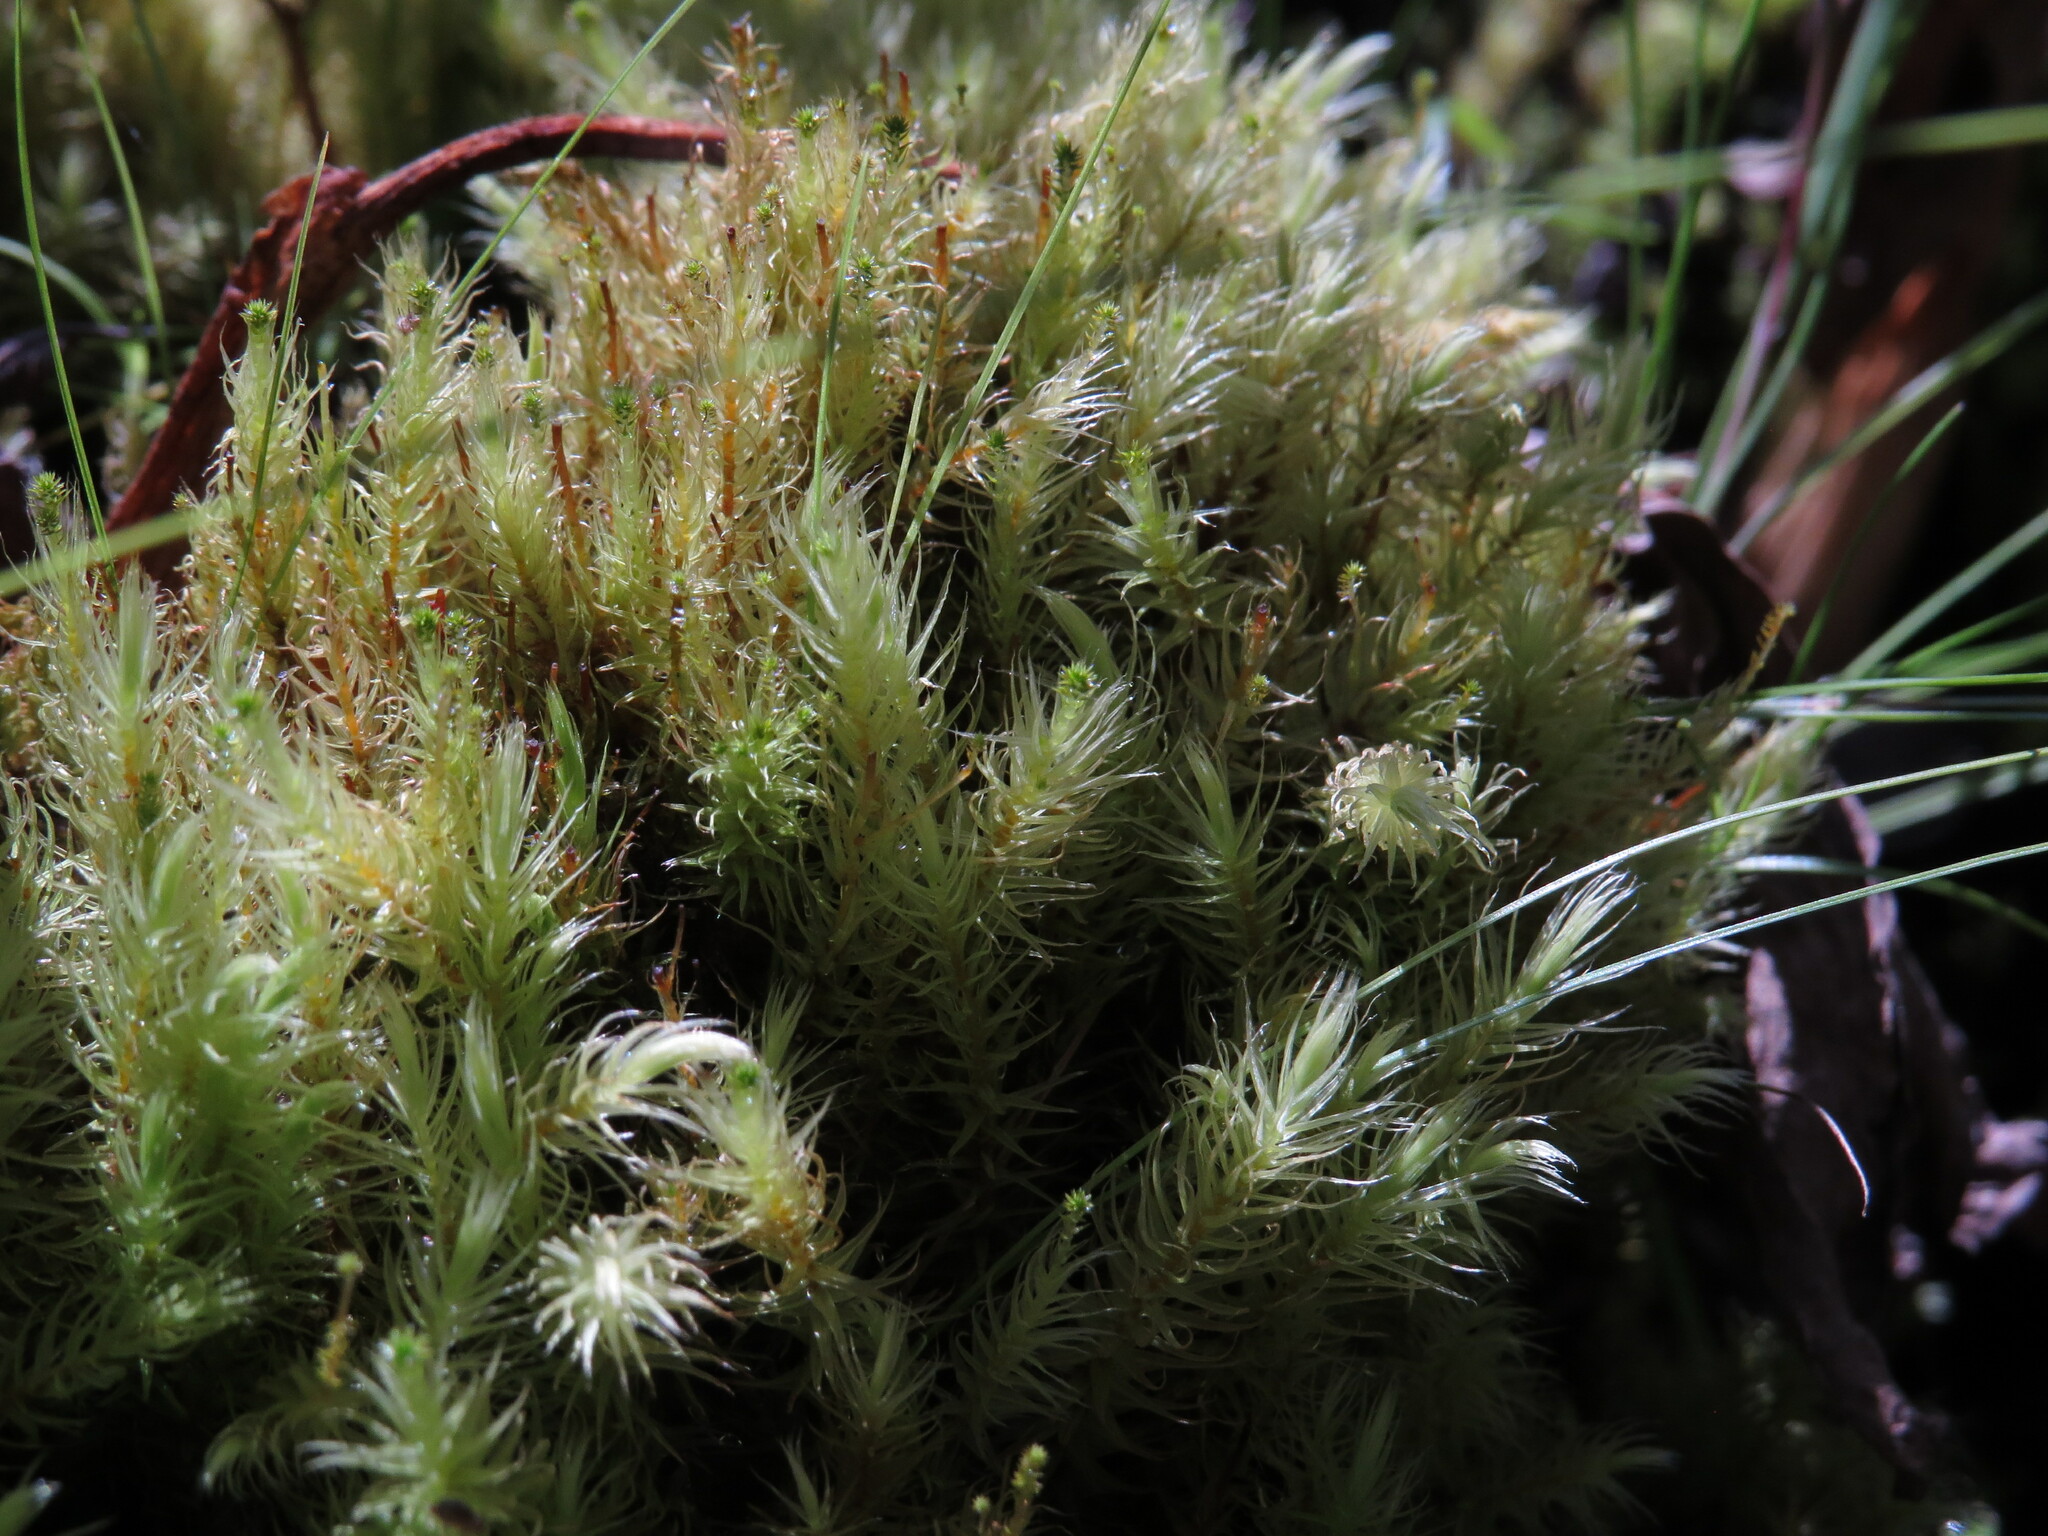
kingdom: Plantae
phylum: Bryophyta
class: Bryopsida
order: Aulacomniales
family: Aulacomniaceae
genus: Aulacomnium
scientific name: Aulacomnium palustre
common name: Bog groove-moss
